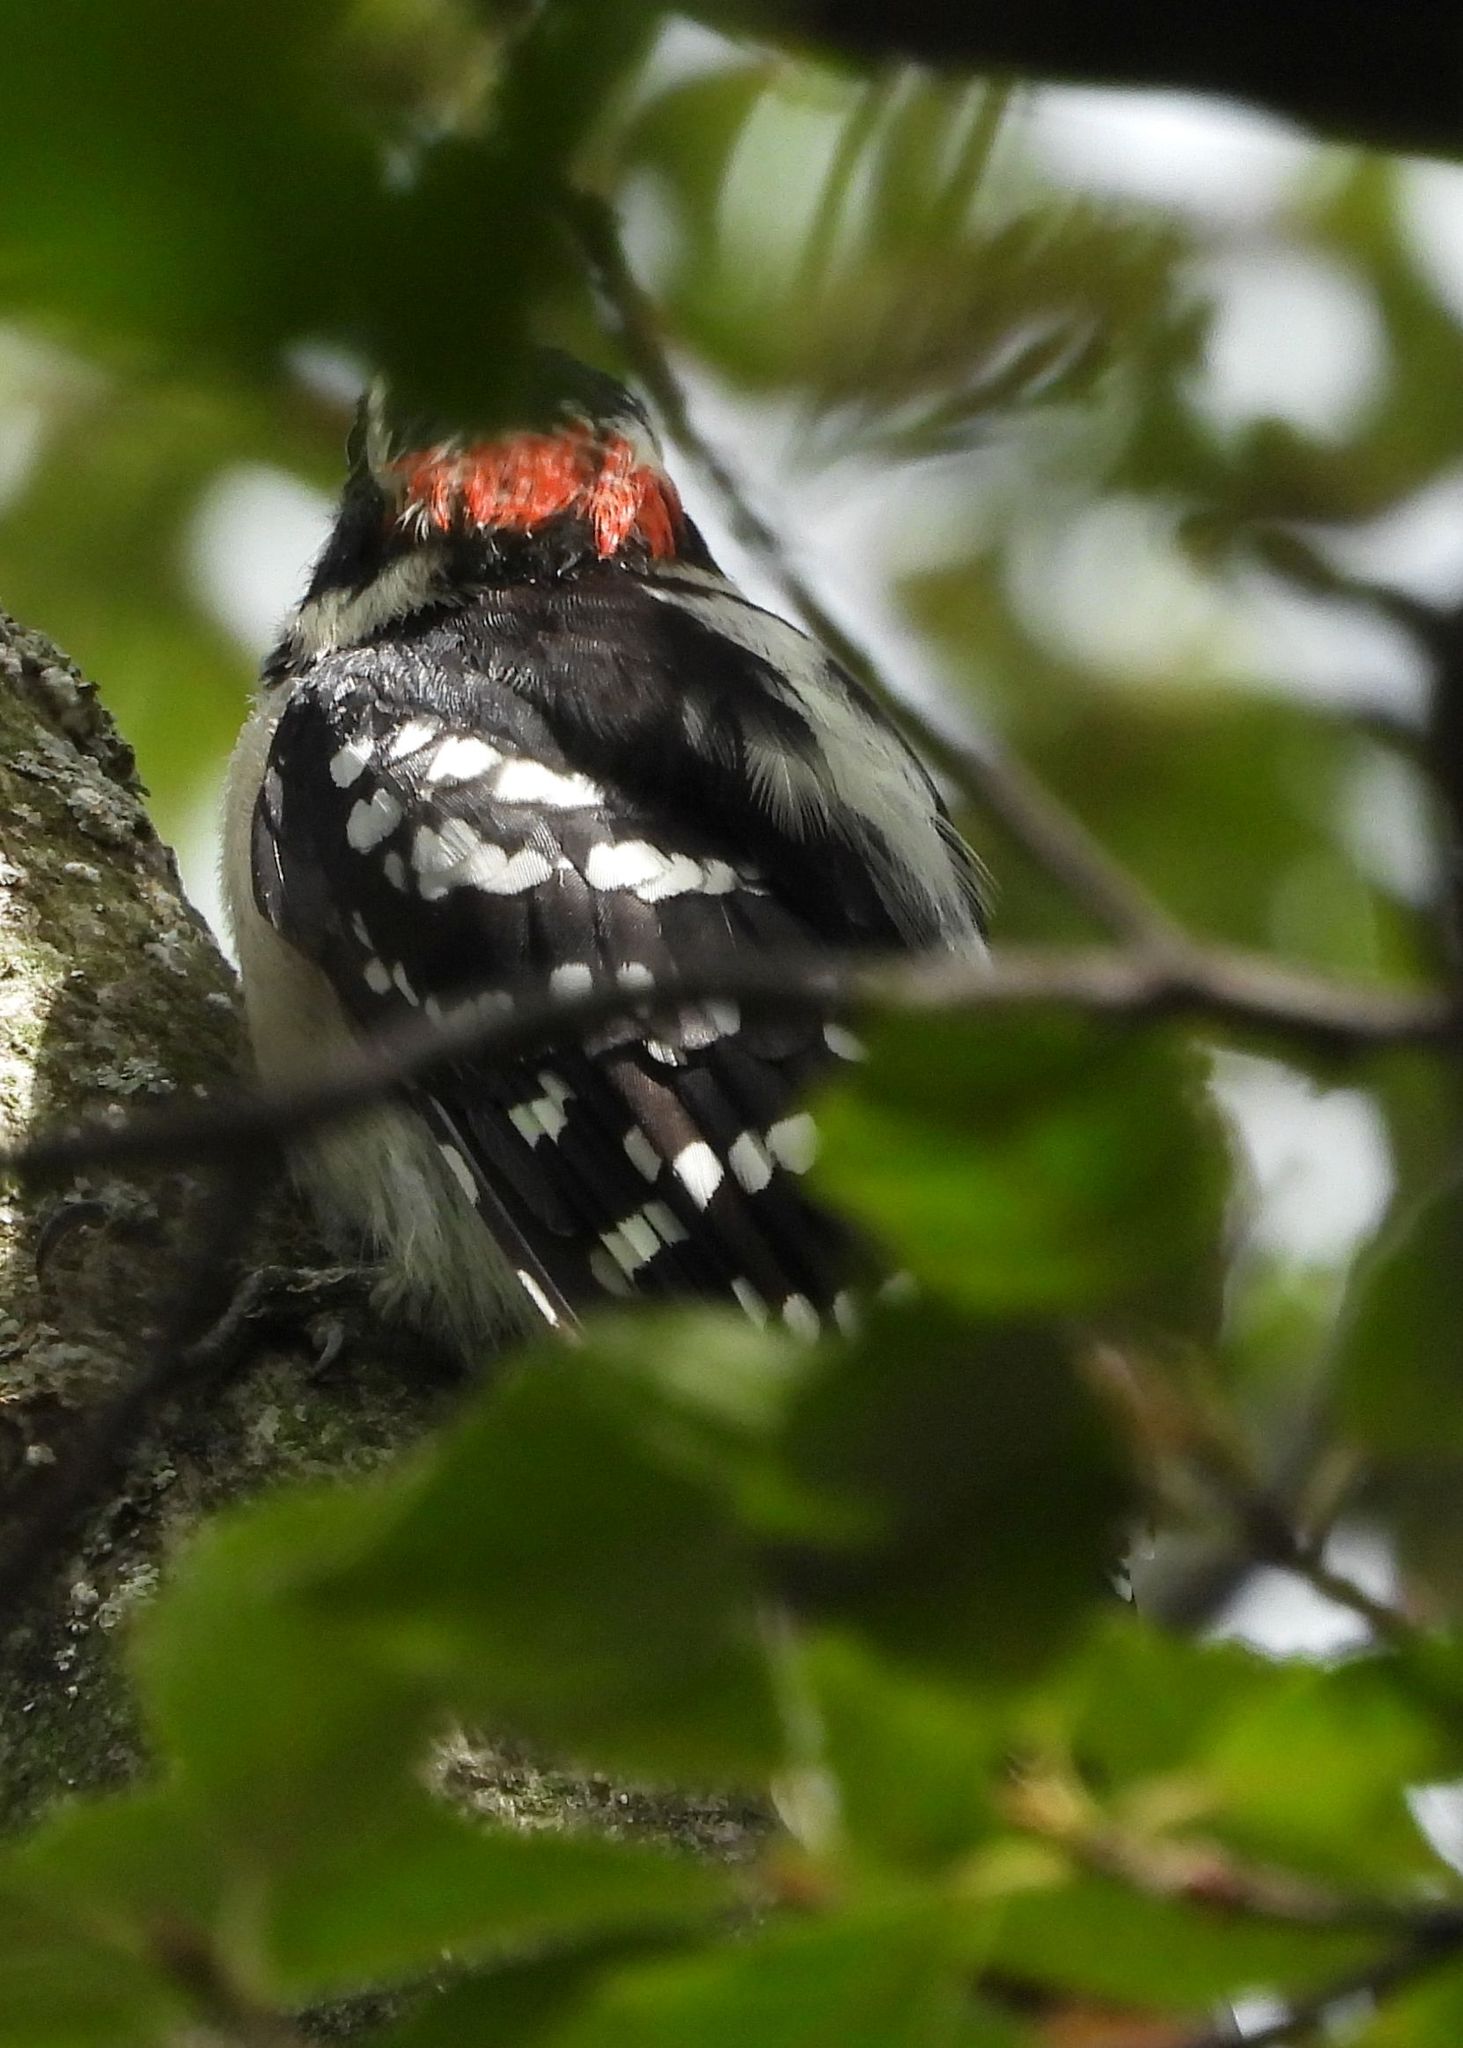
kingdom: Animalia
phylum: Chordata
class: Aves
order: Piciformes
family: Picidae
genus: Dryobates
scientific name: Dryobates pubescens
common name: Downy woodpecker
